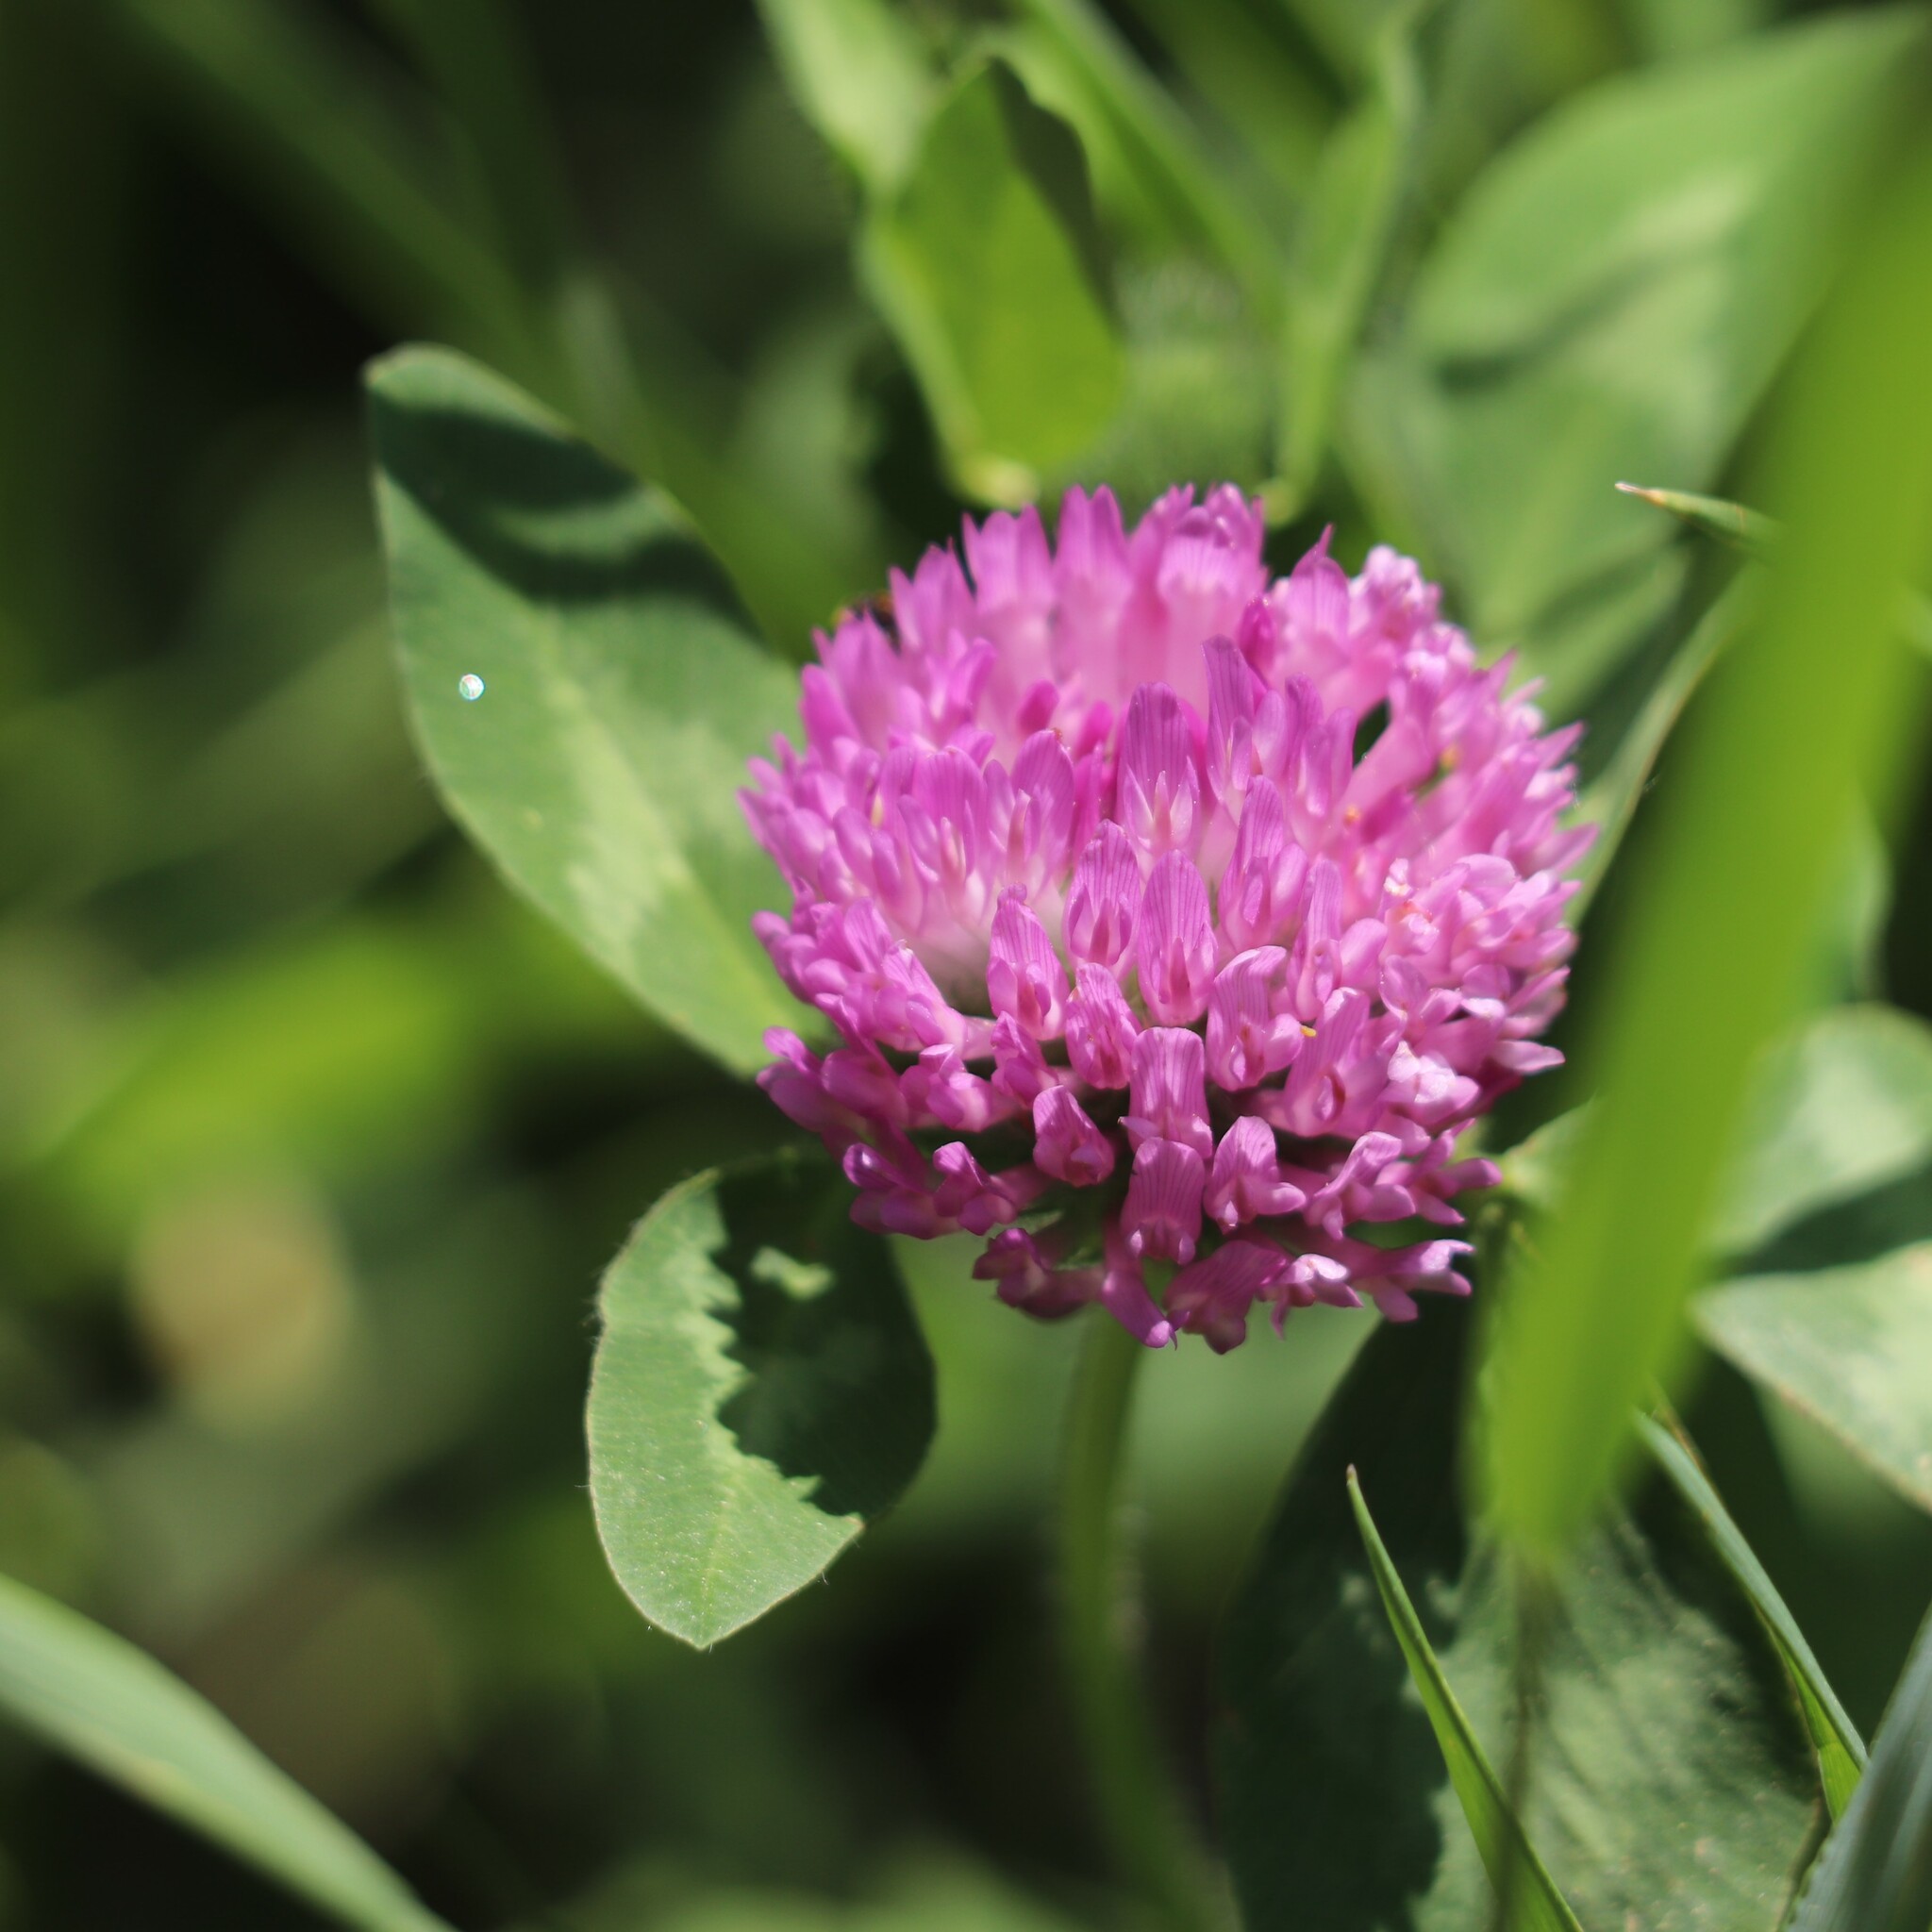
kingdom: Plantae
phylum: Tracheophyta
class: Magnoliopsida
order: Fabales
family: Fabaceae
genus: Trifolium
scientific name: Trifolium pratense
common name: Red clover
